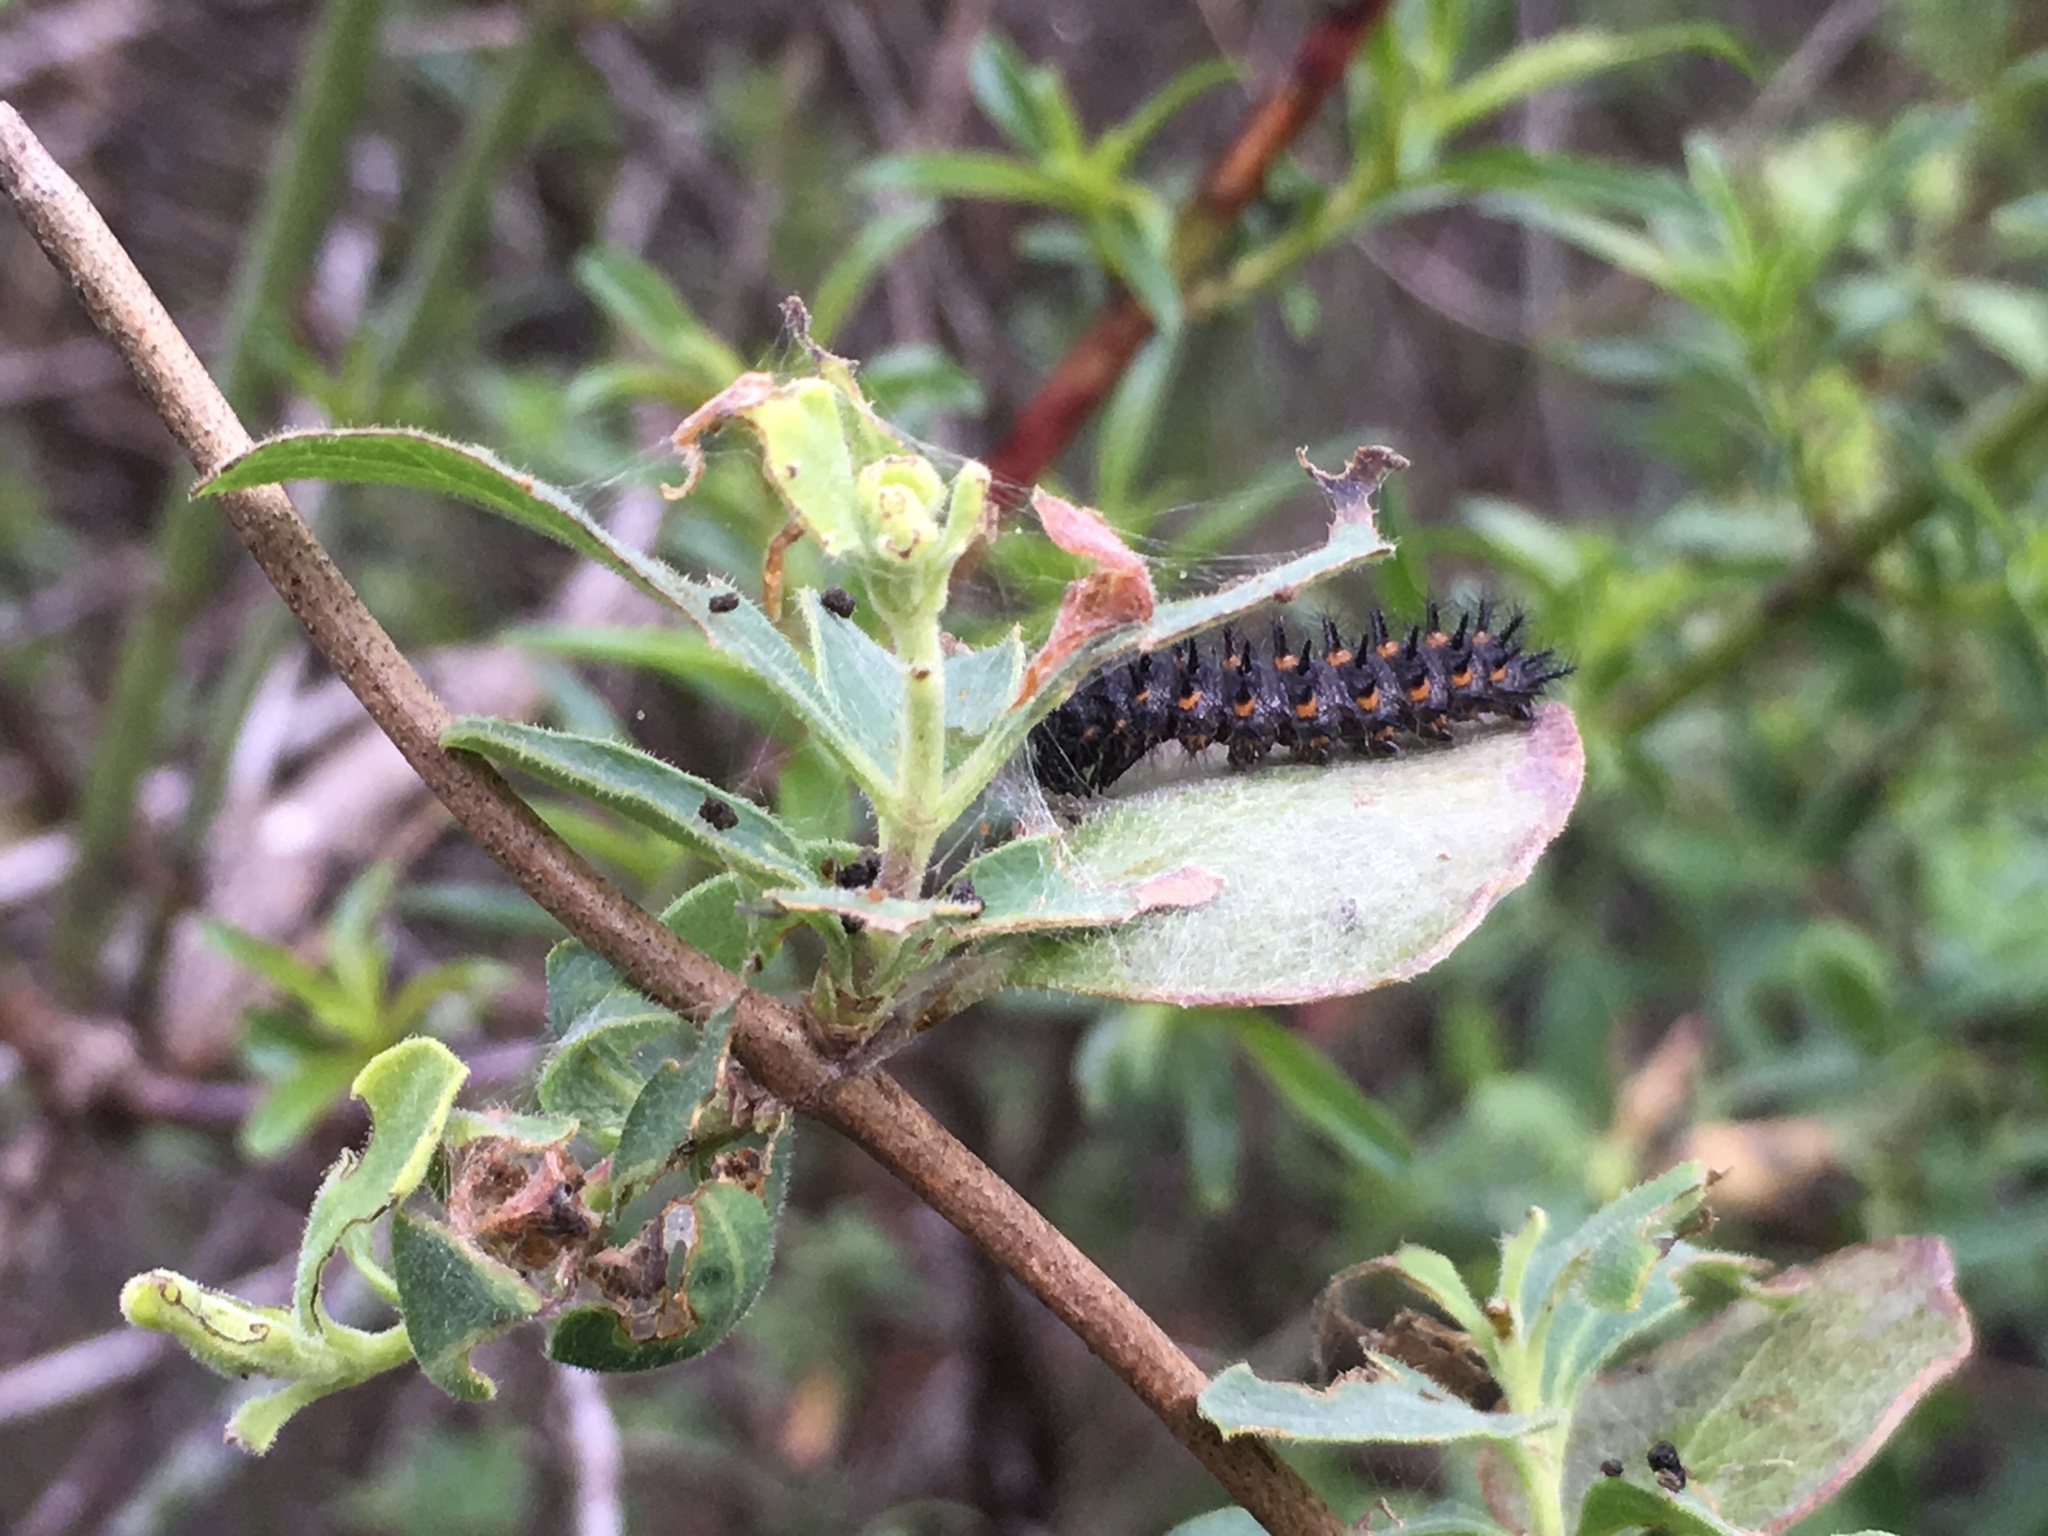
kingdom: Animalia
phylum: Arthropoda
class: Insecta
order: Lepidoptera
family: Nymphalidae
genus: Occidryas
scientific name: Occidryas chalcedona
